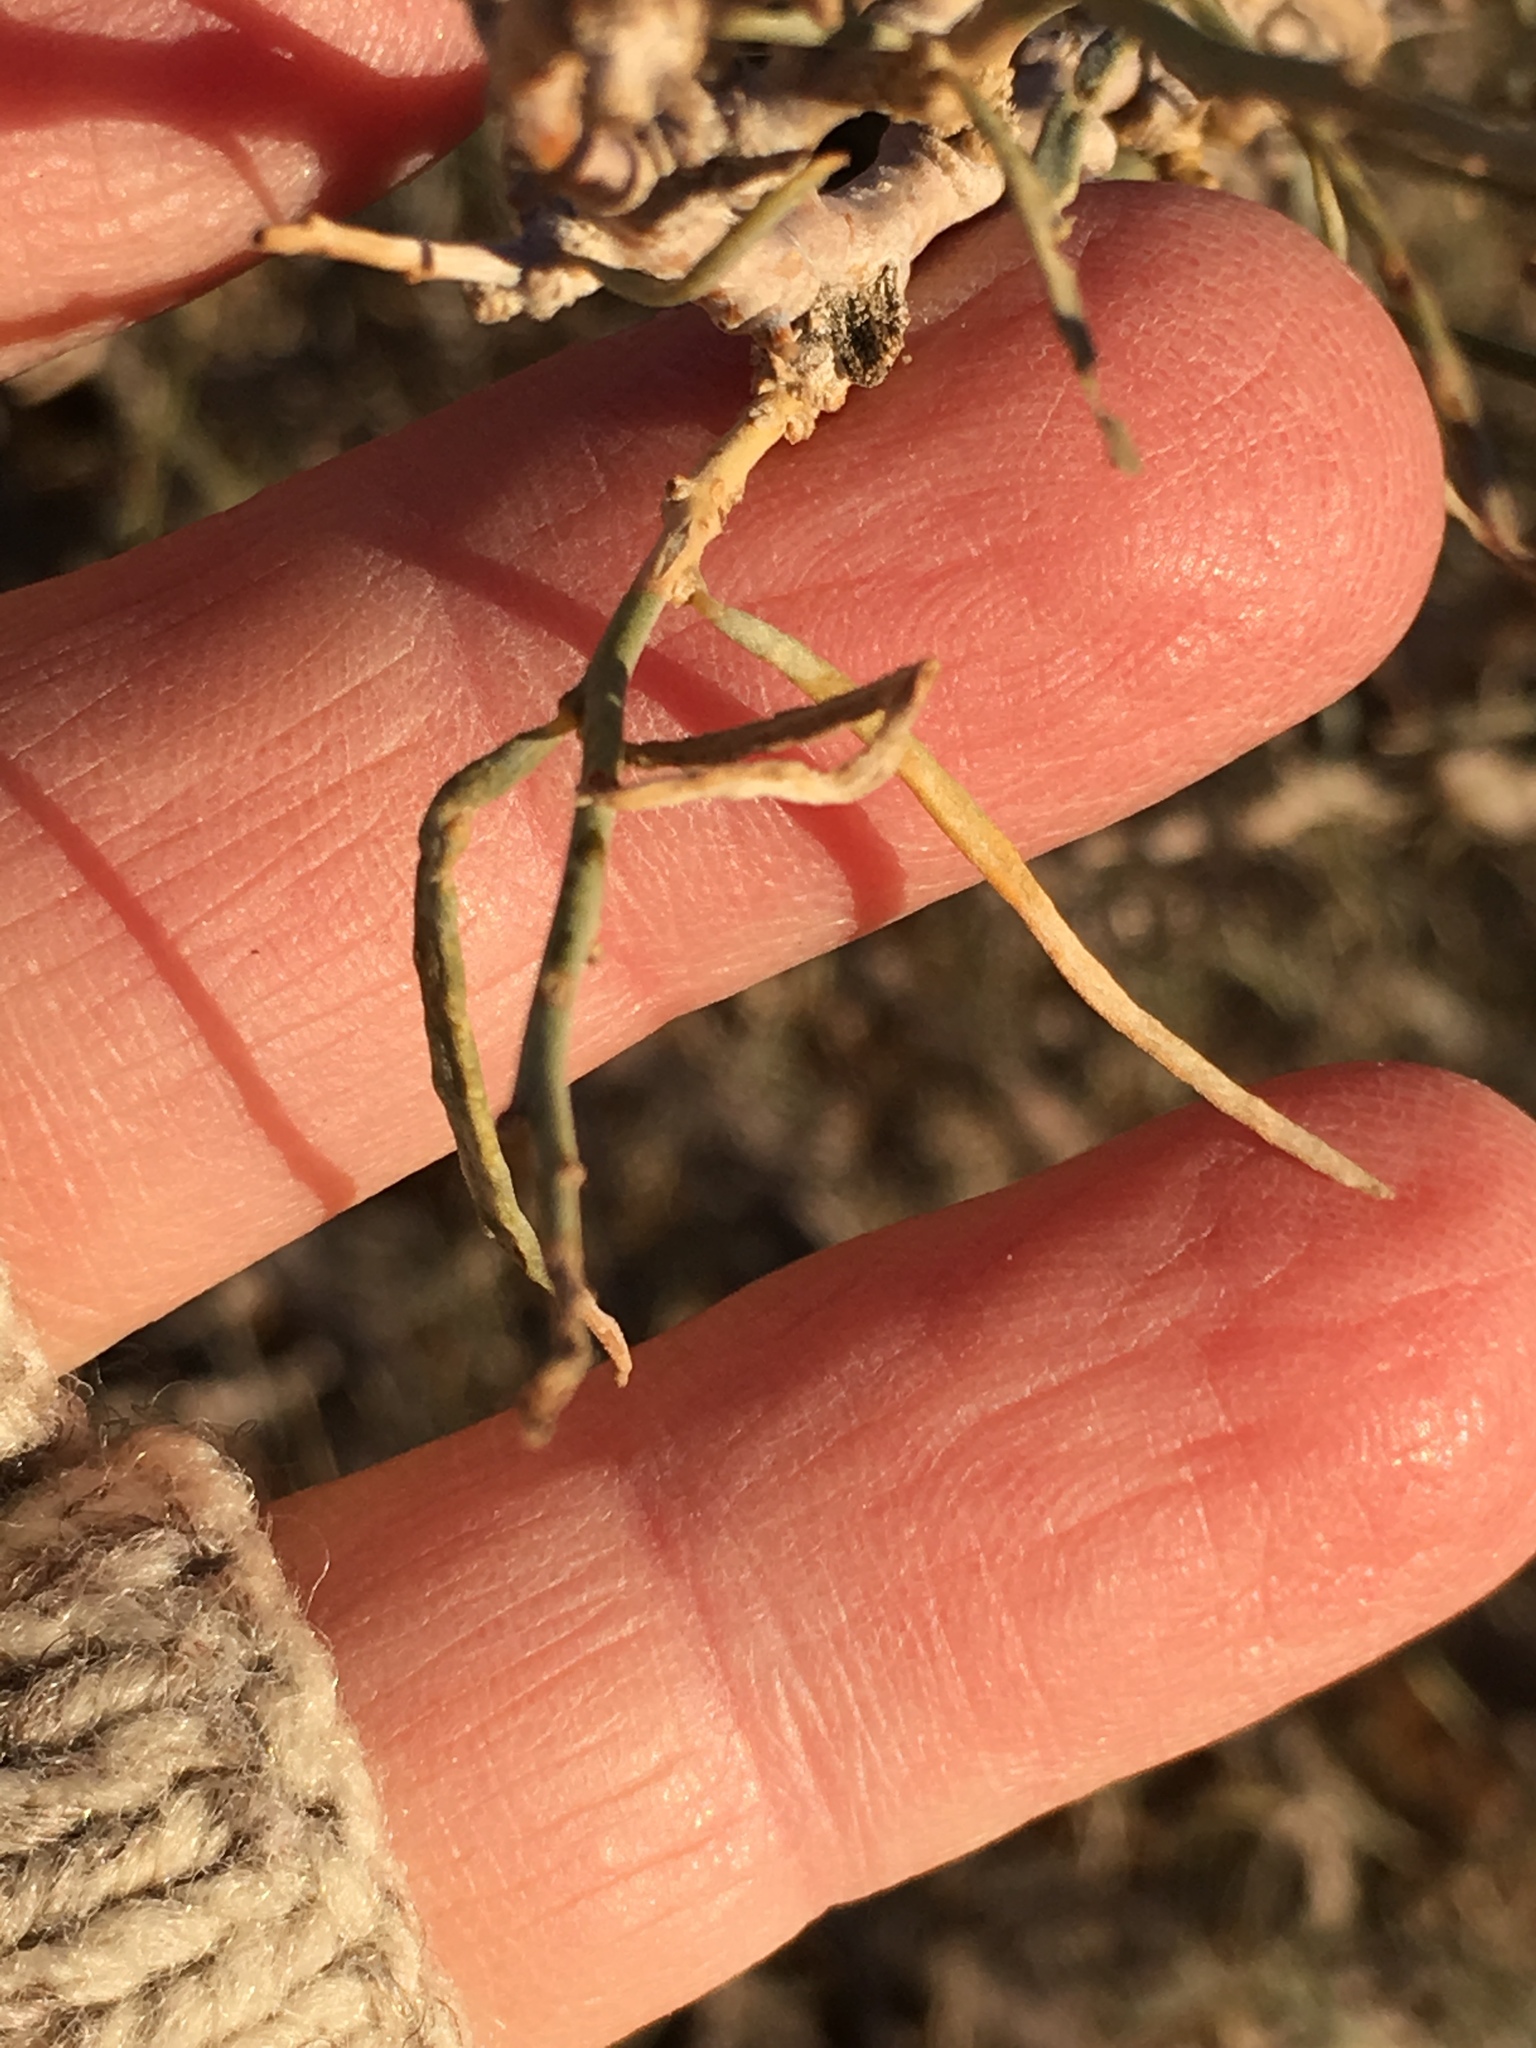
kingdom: Plantae
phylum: Tracheophyta
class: Magnoliopsida
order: Fabales
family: Fabaceae
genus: Psorothamnus
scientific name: Psorothamnus schottii
